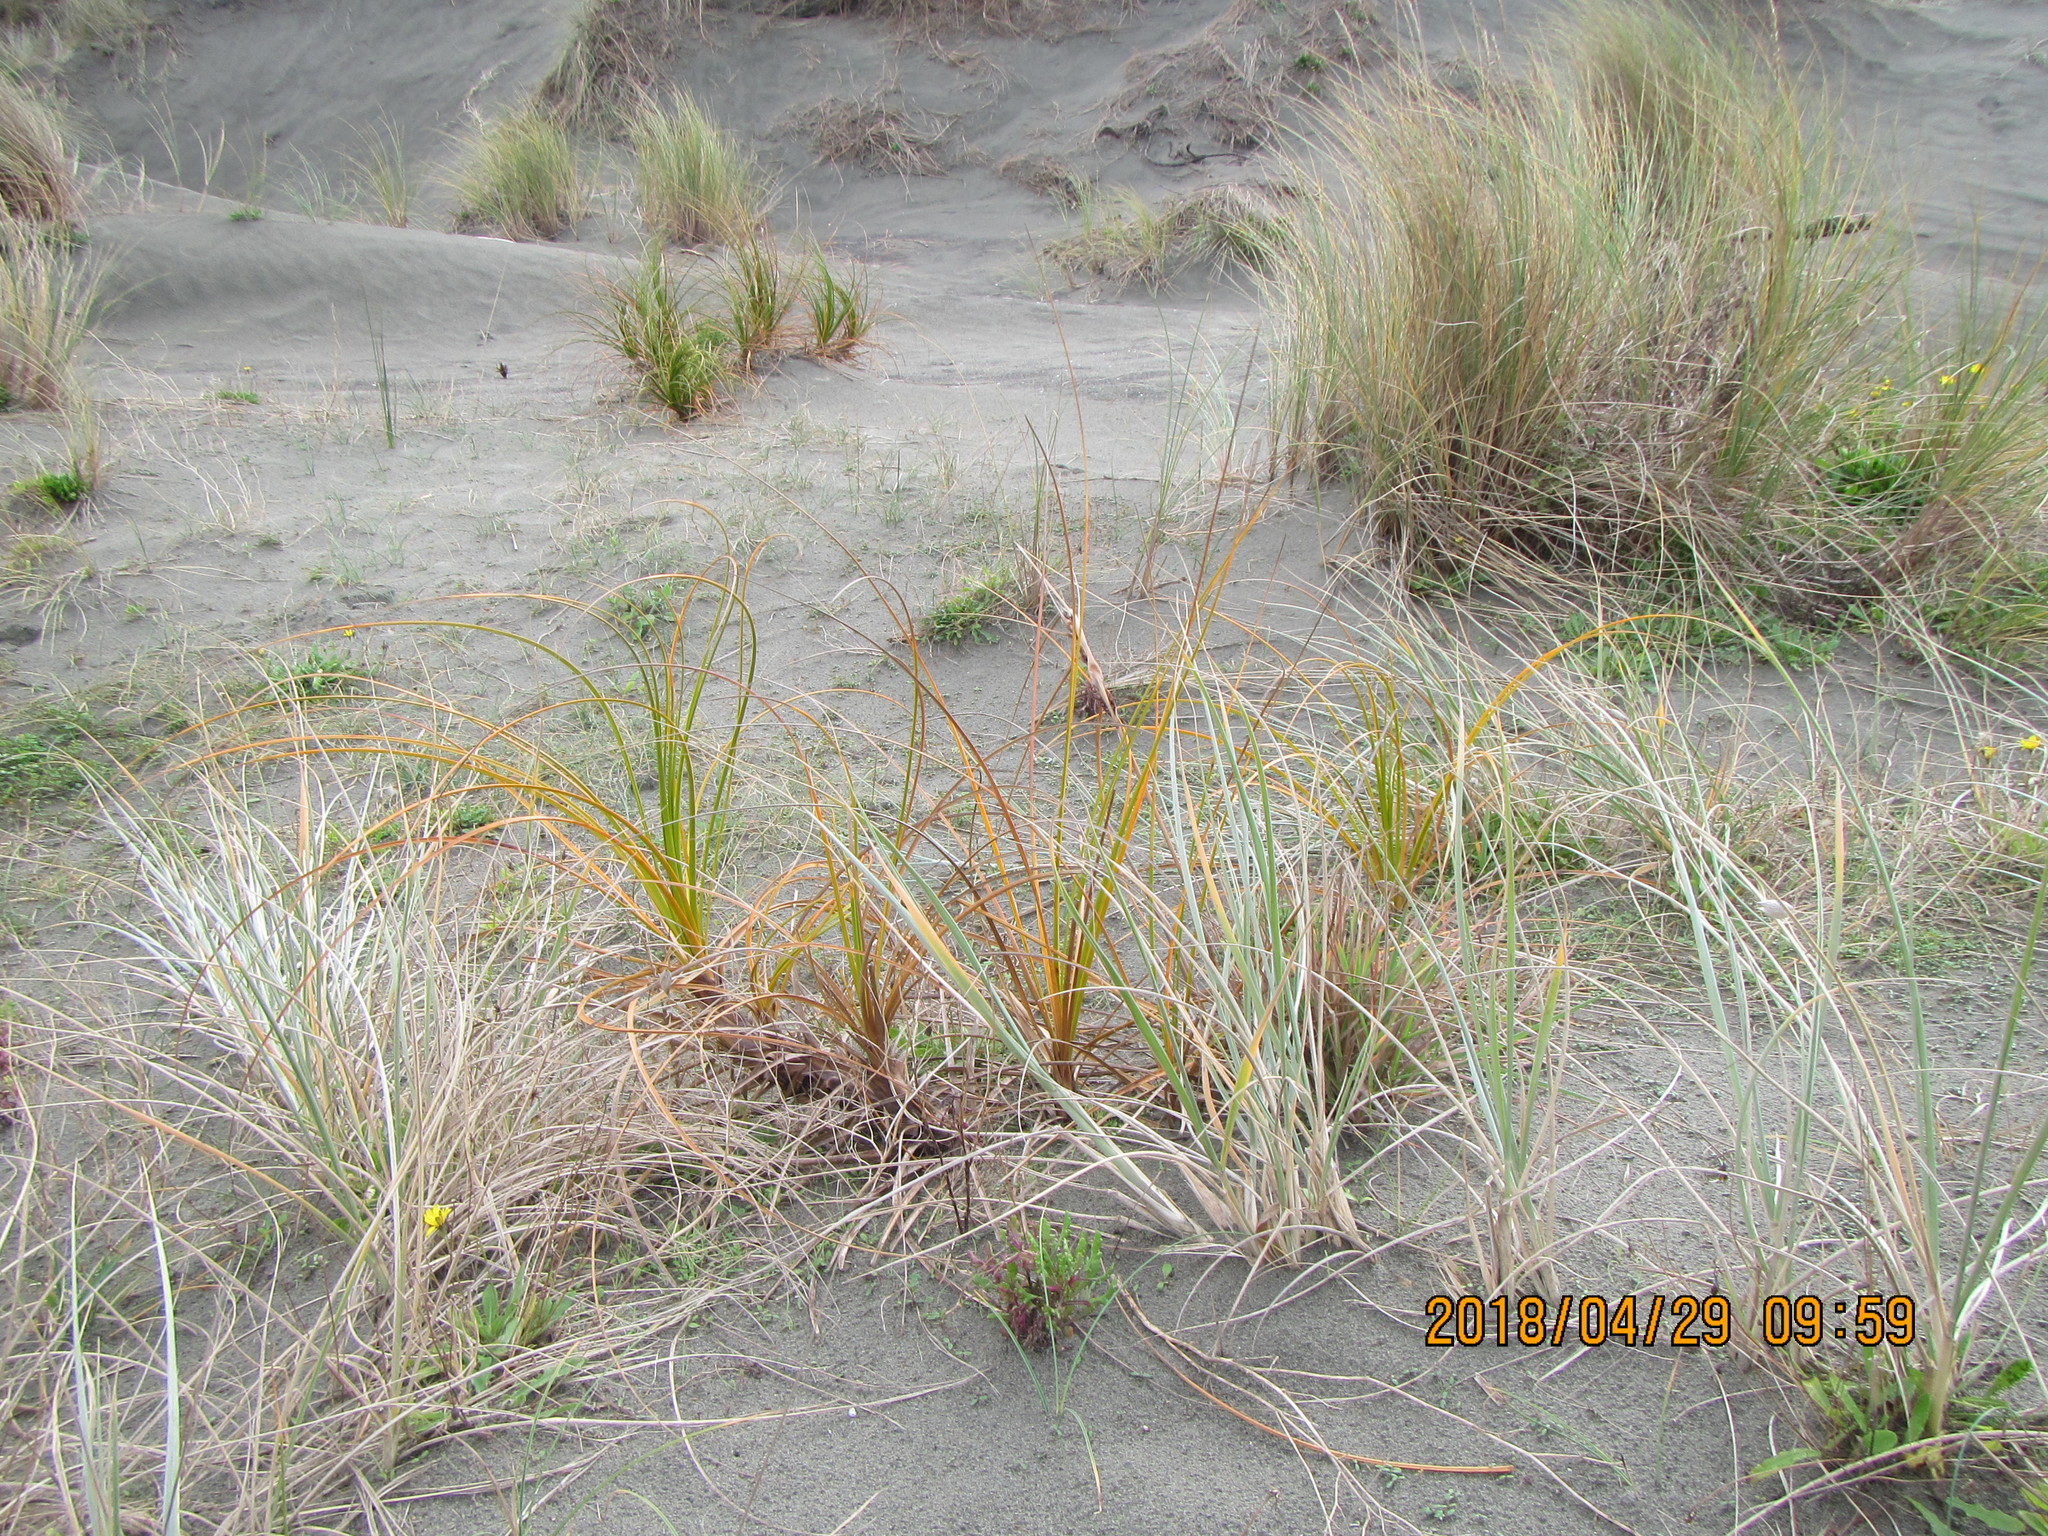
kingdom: Plantae
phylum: Tracheophyta
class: Liliopsida
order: Poales
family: Cyperaceae
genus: Ficinia
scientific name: Ficinia spiralis
